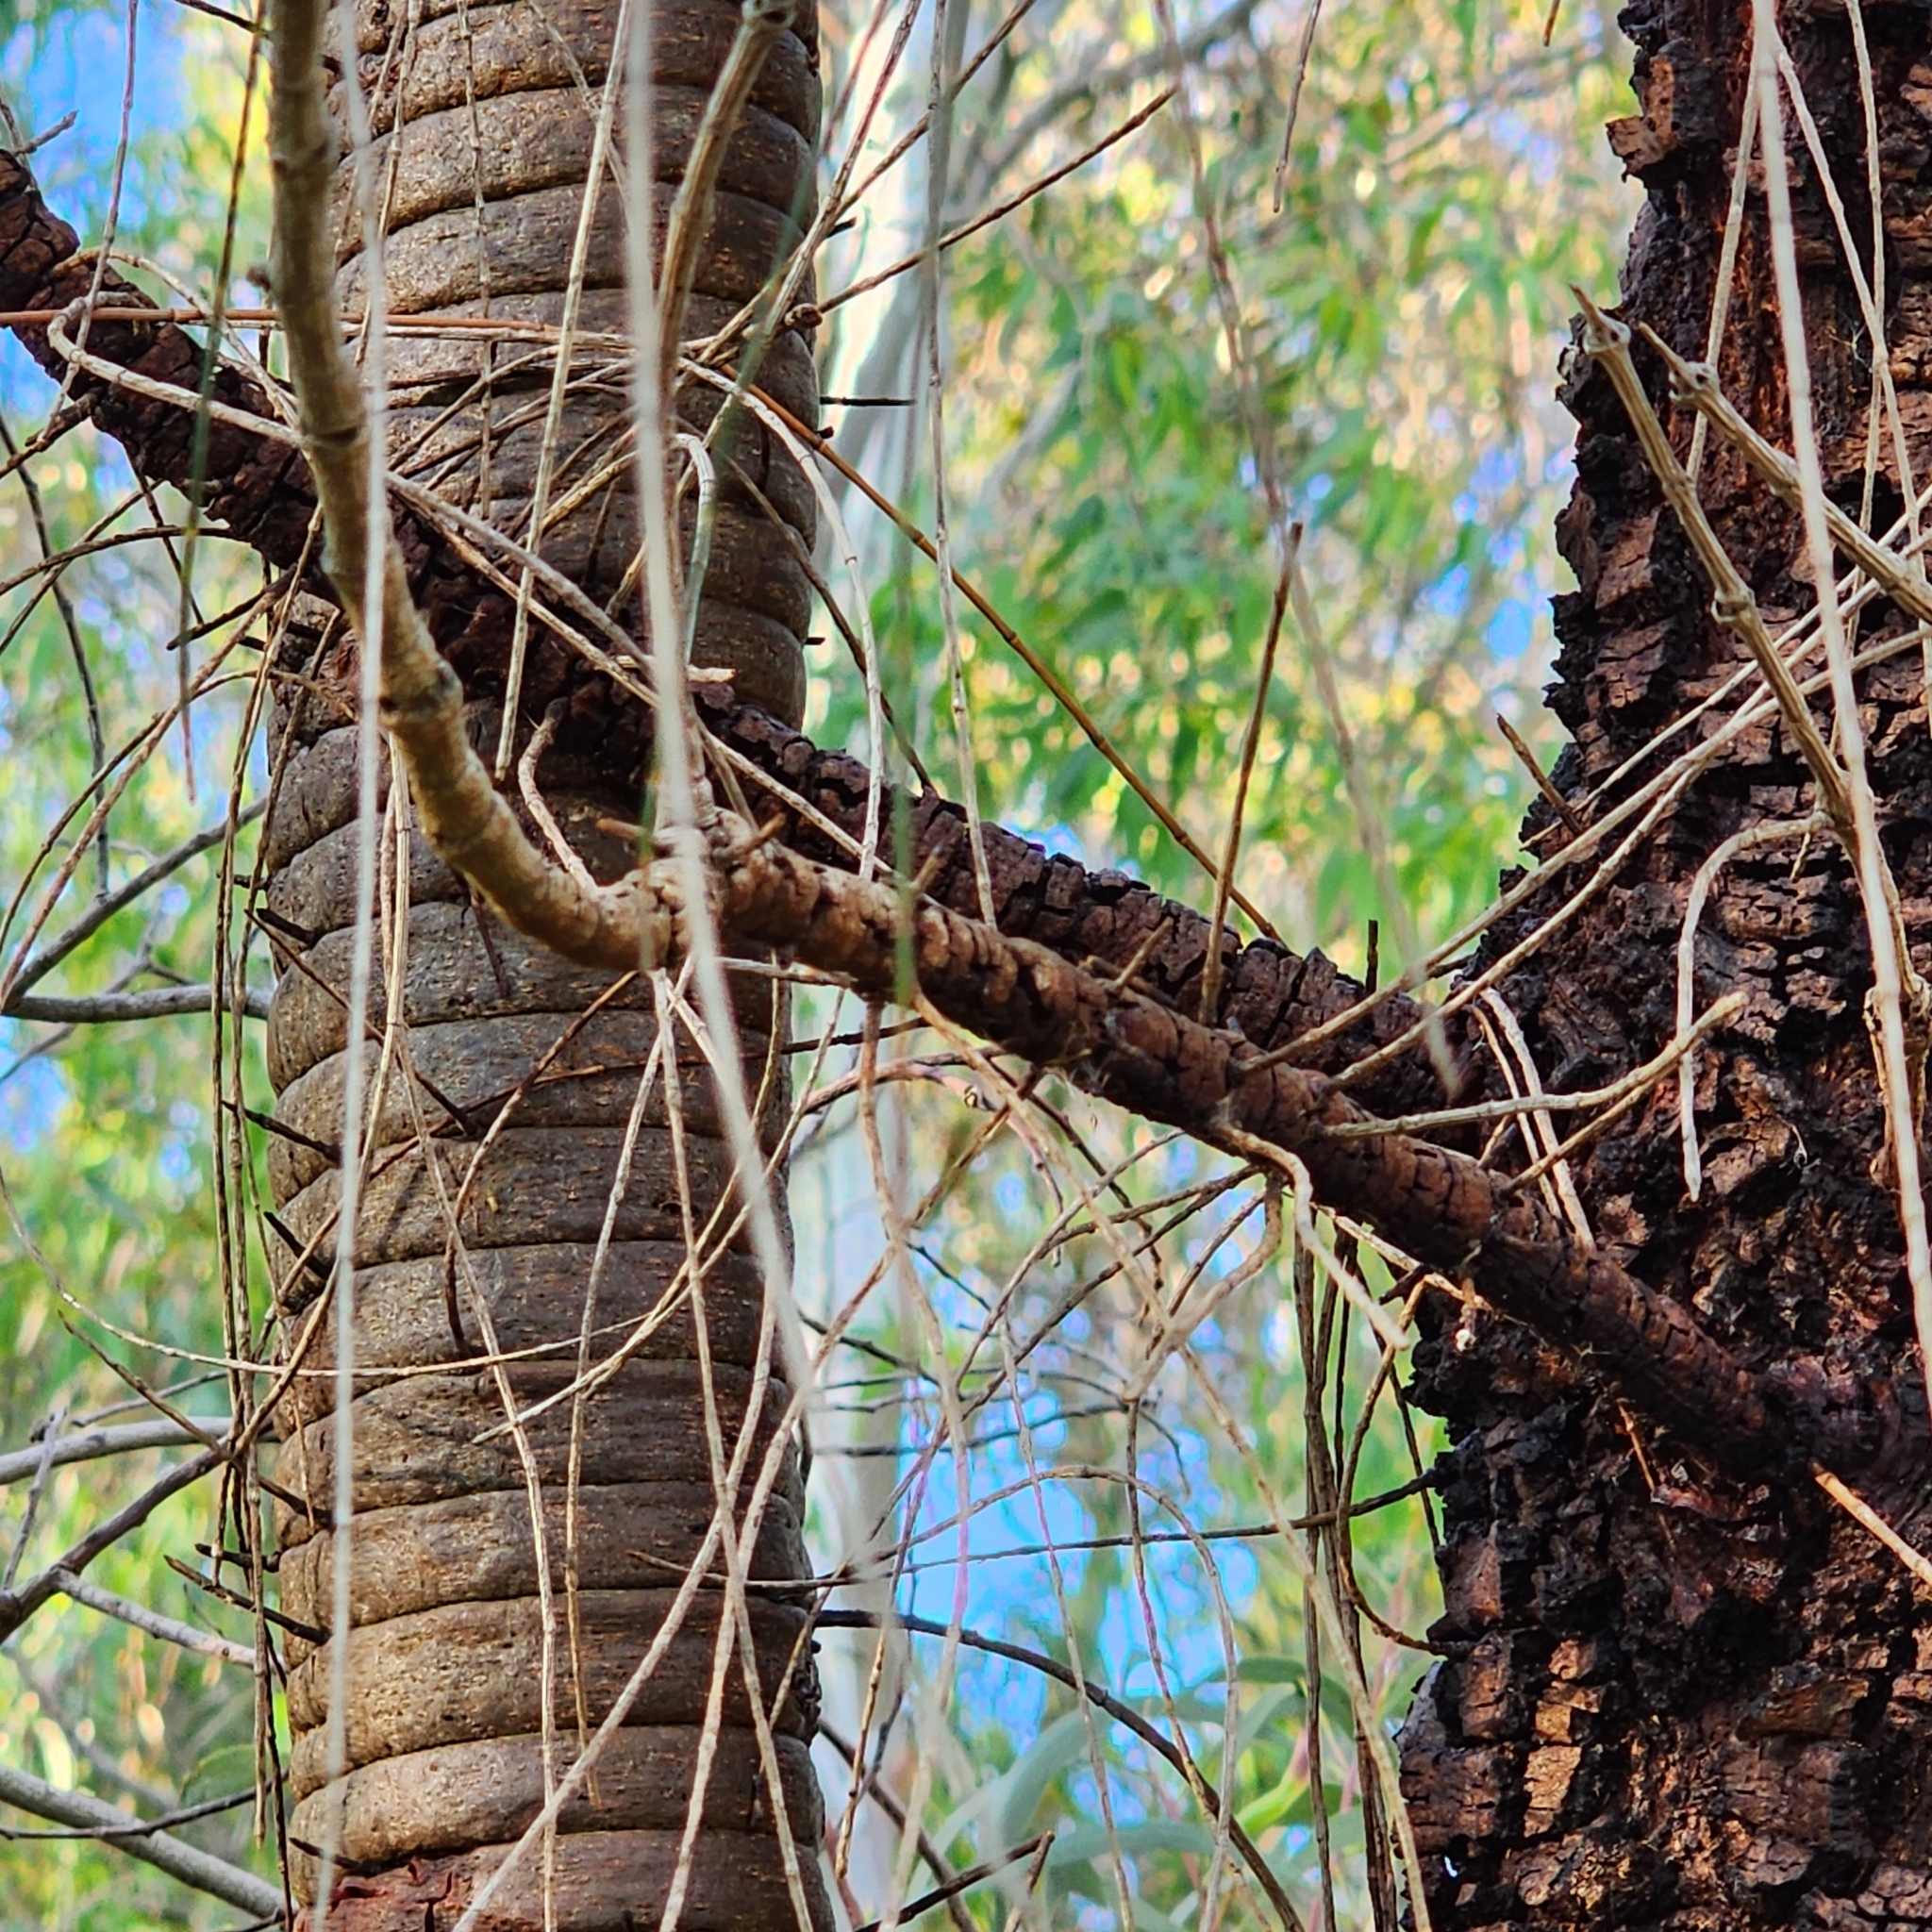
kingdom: Plantae
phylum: Tracheophyta
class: Magnoliopsida
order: Fagales
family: Casuarinaceae
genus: Allocasuarina
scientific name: Allocasuarina verticillata
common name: Drooping she-oak
